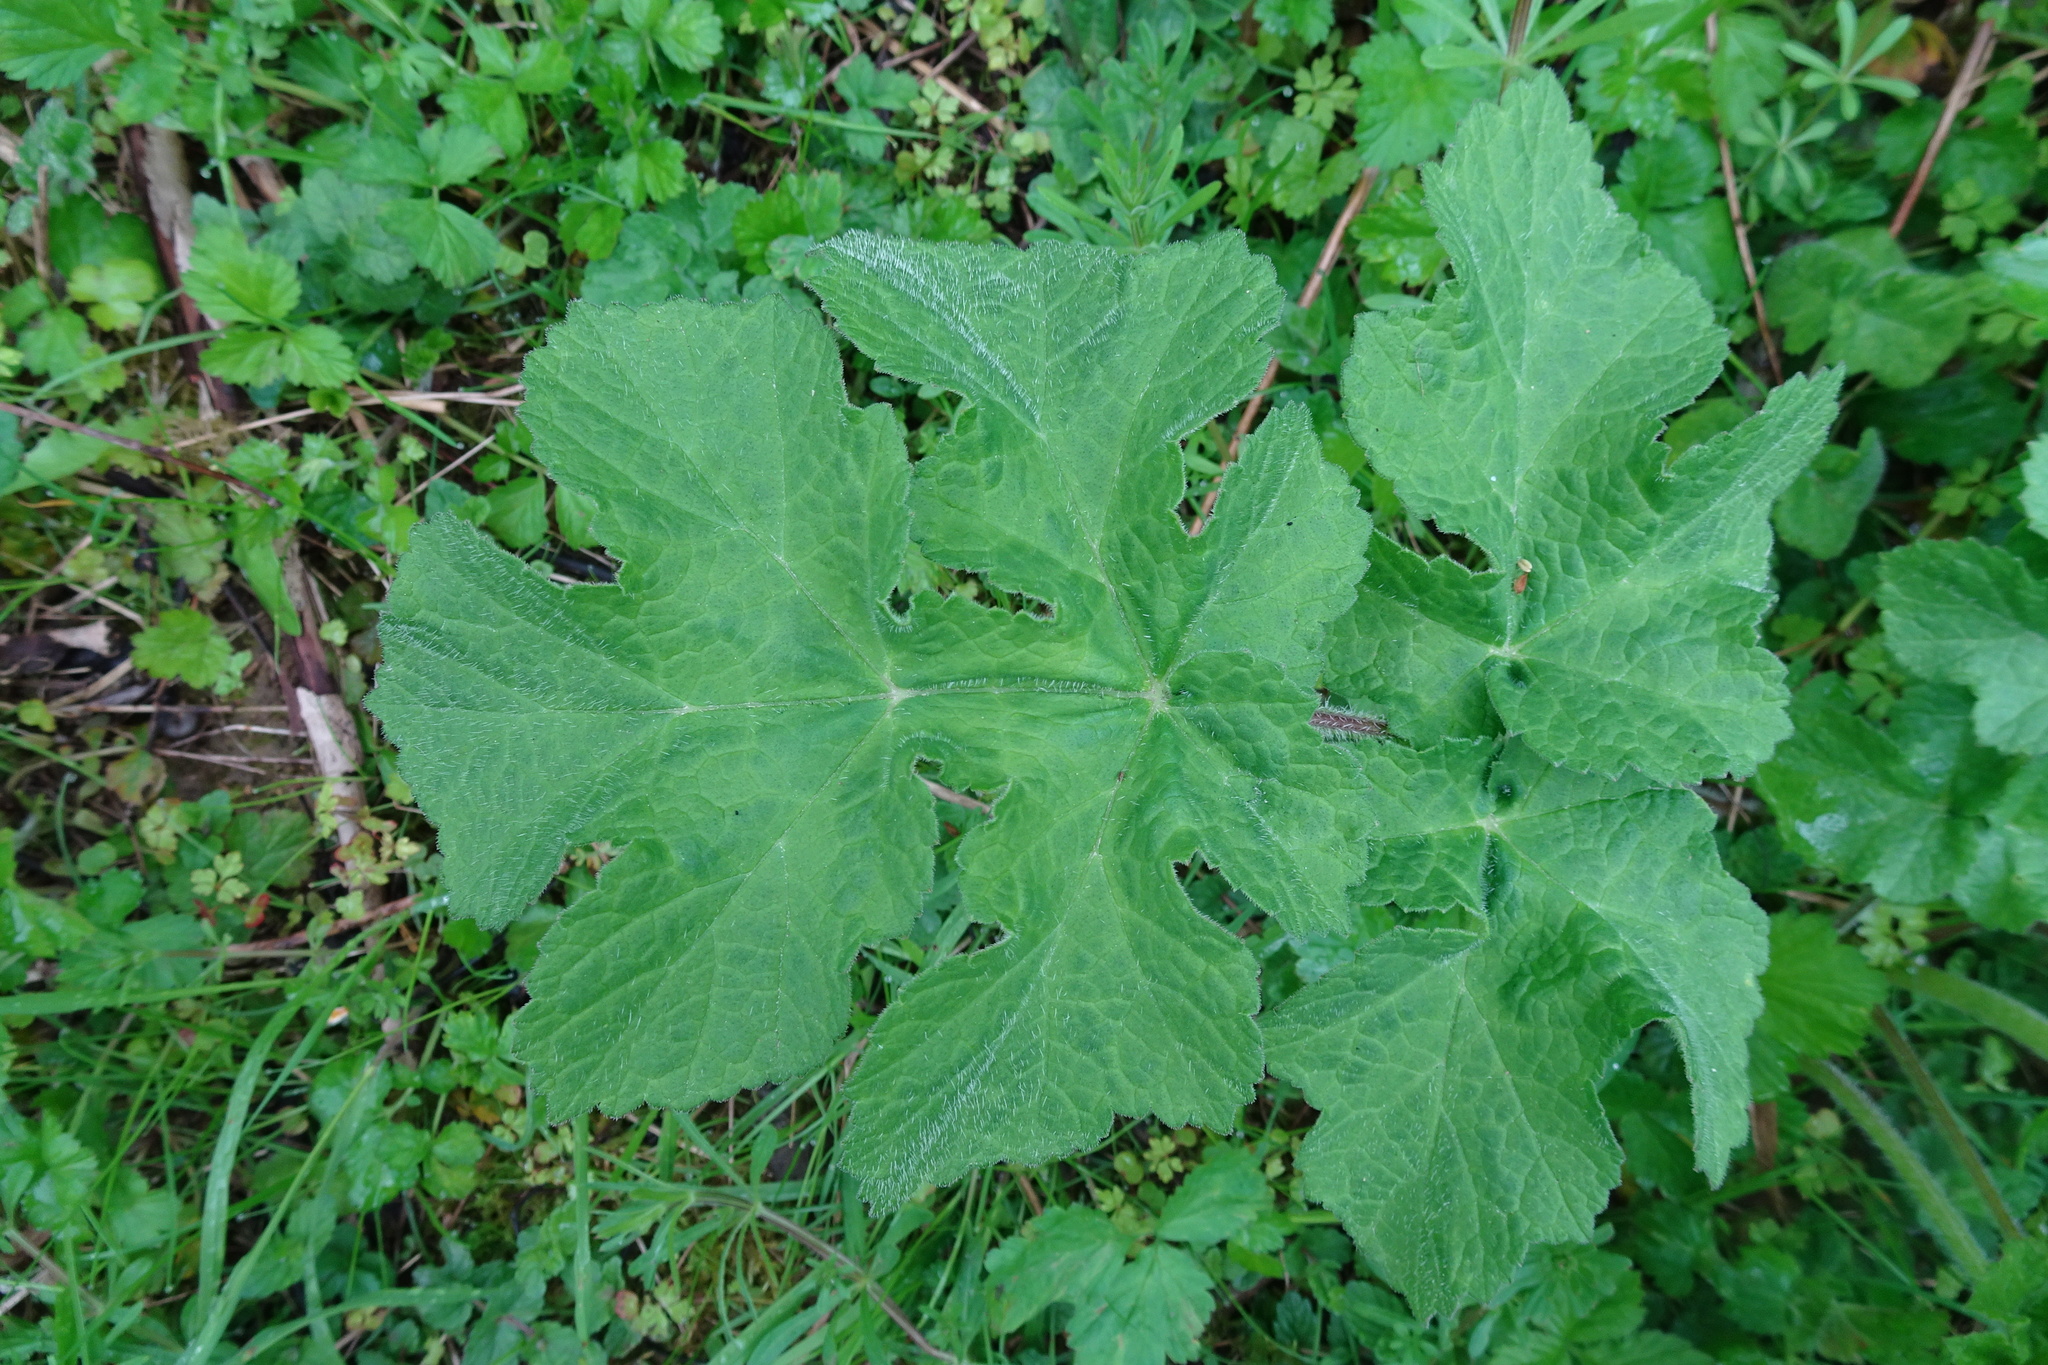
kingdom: Plantae
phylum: Tracheophyta
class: Magnoliopsida
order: Apiales
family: Apiaceae
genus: Heracleum
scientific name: Heracleum sphondylium
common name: Hogweed
